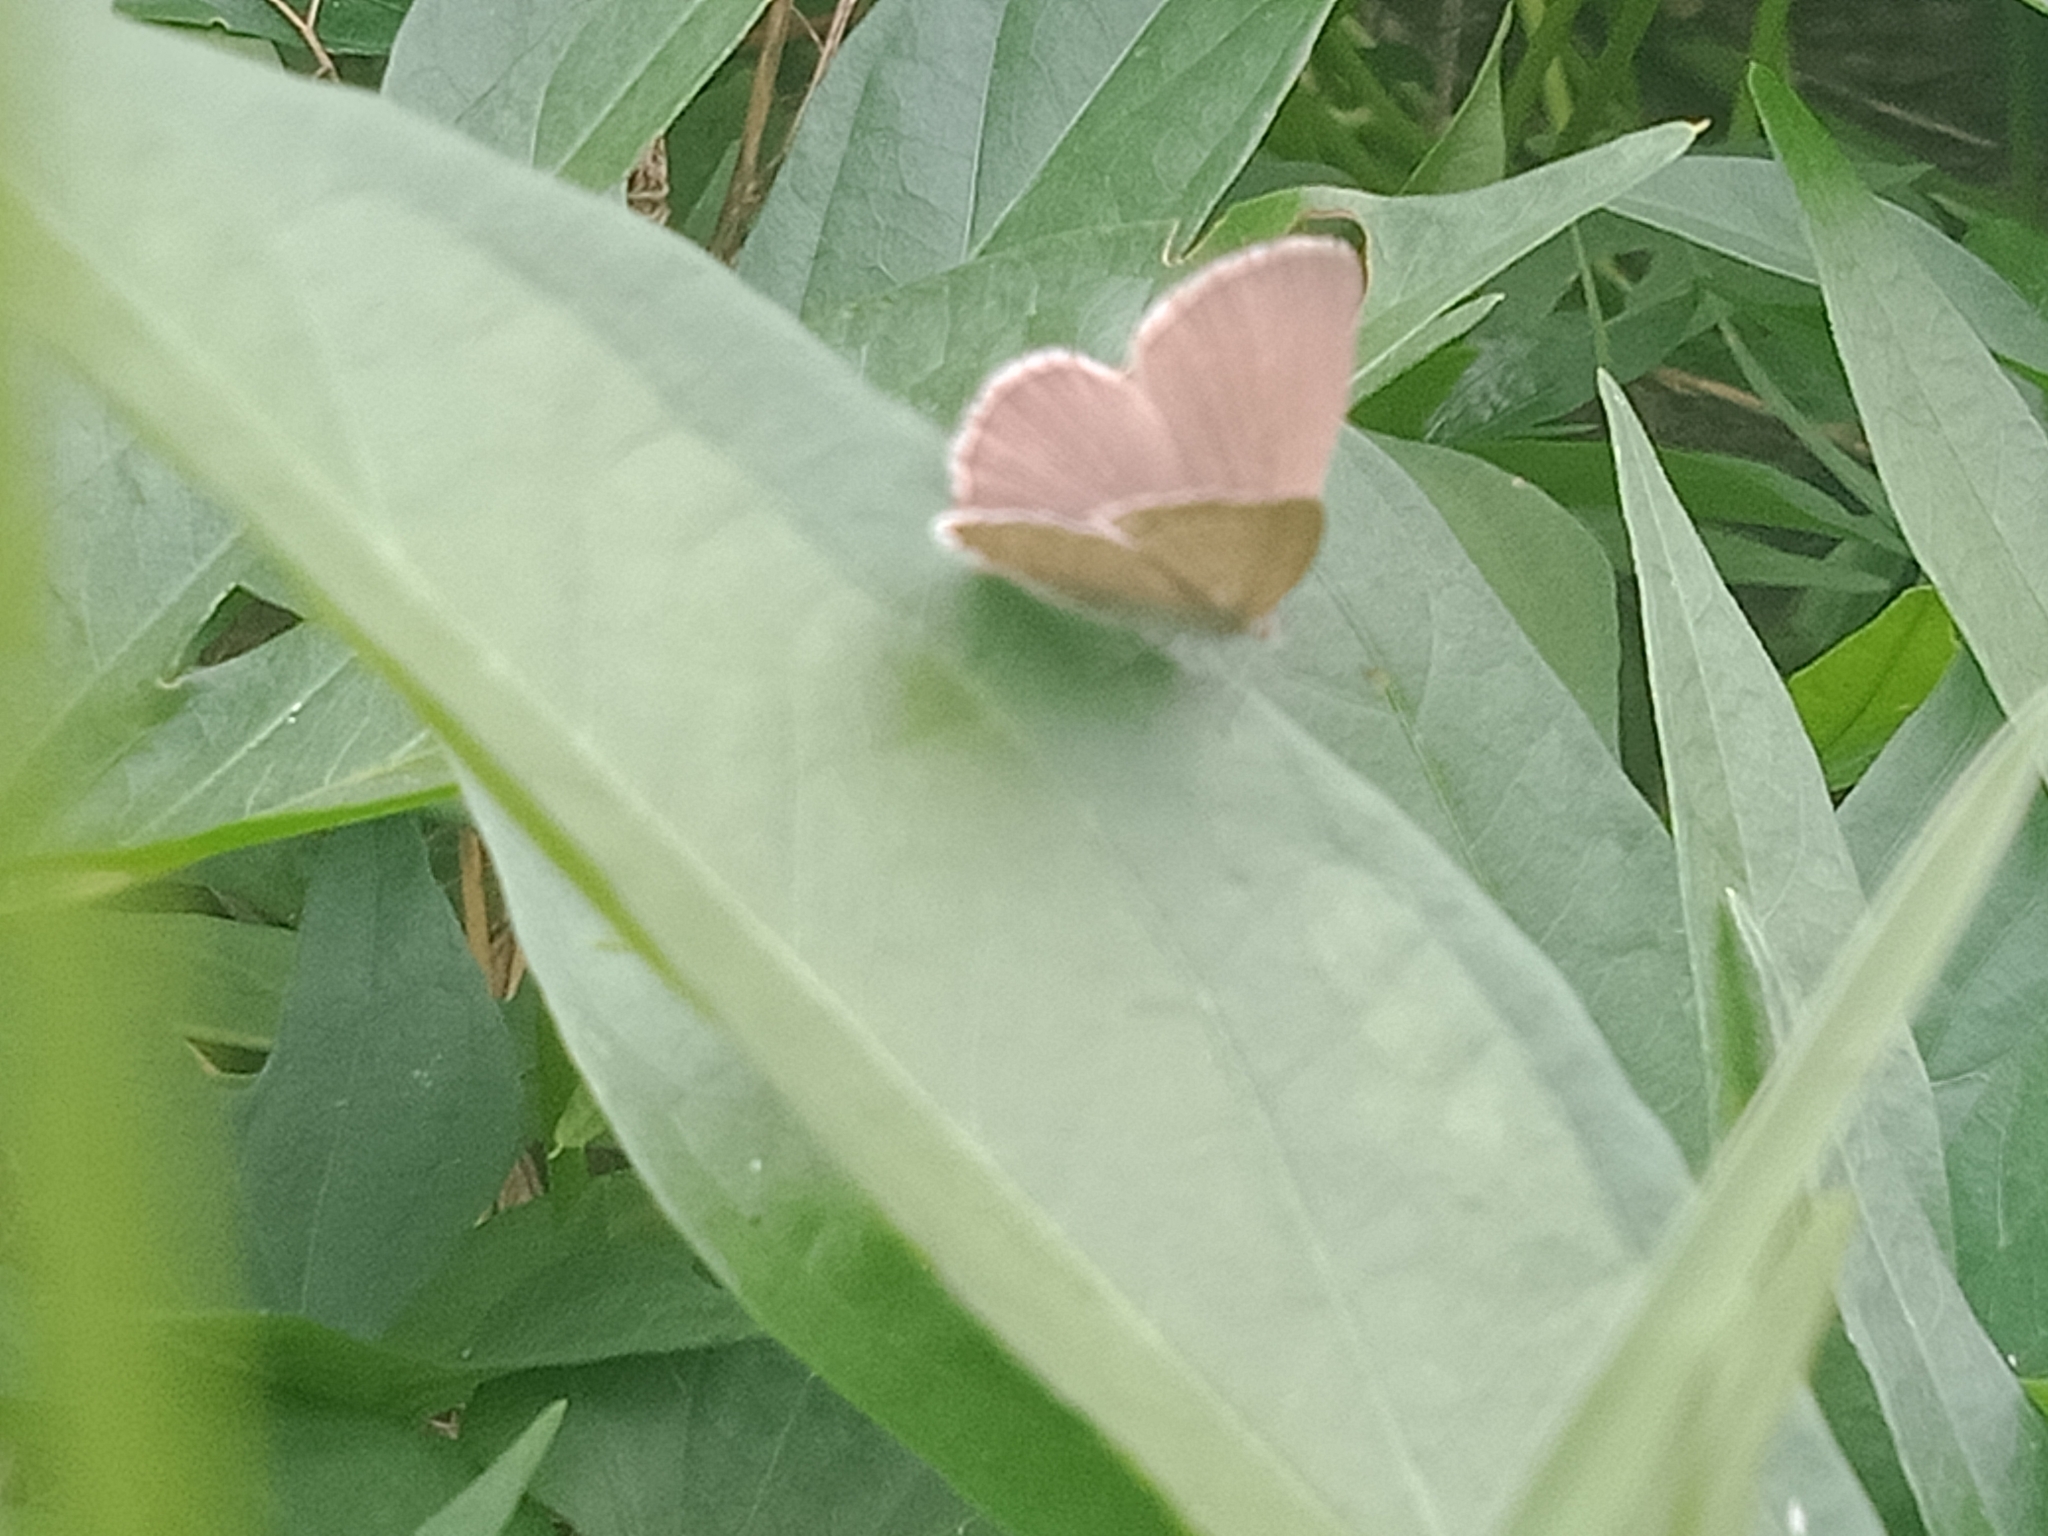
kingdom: Animalia
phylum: Arthropoda
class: Insecta
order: Lepidoptera
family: Lycaenidae
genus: Zizina
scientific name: Zizina otis
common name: Lesser grass blue
